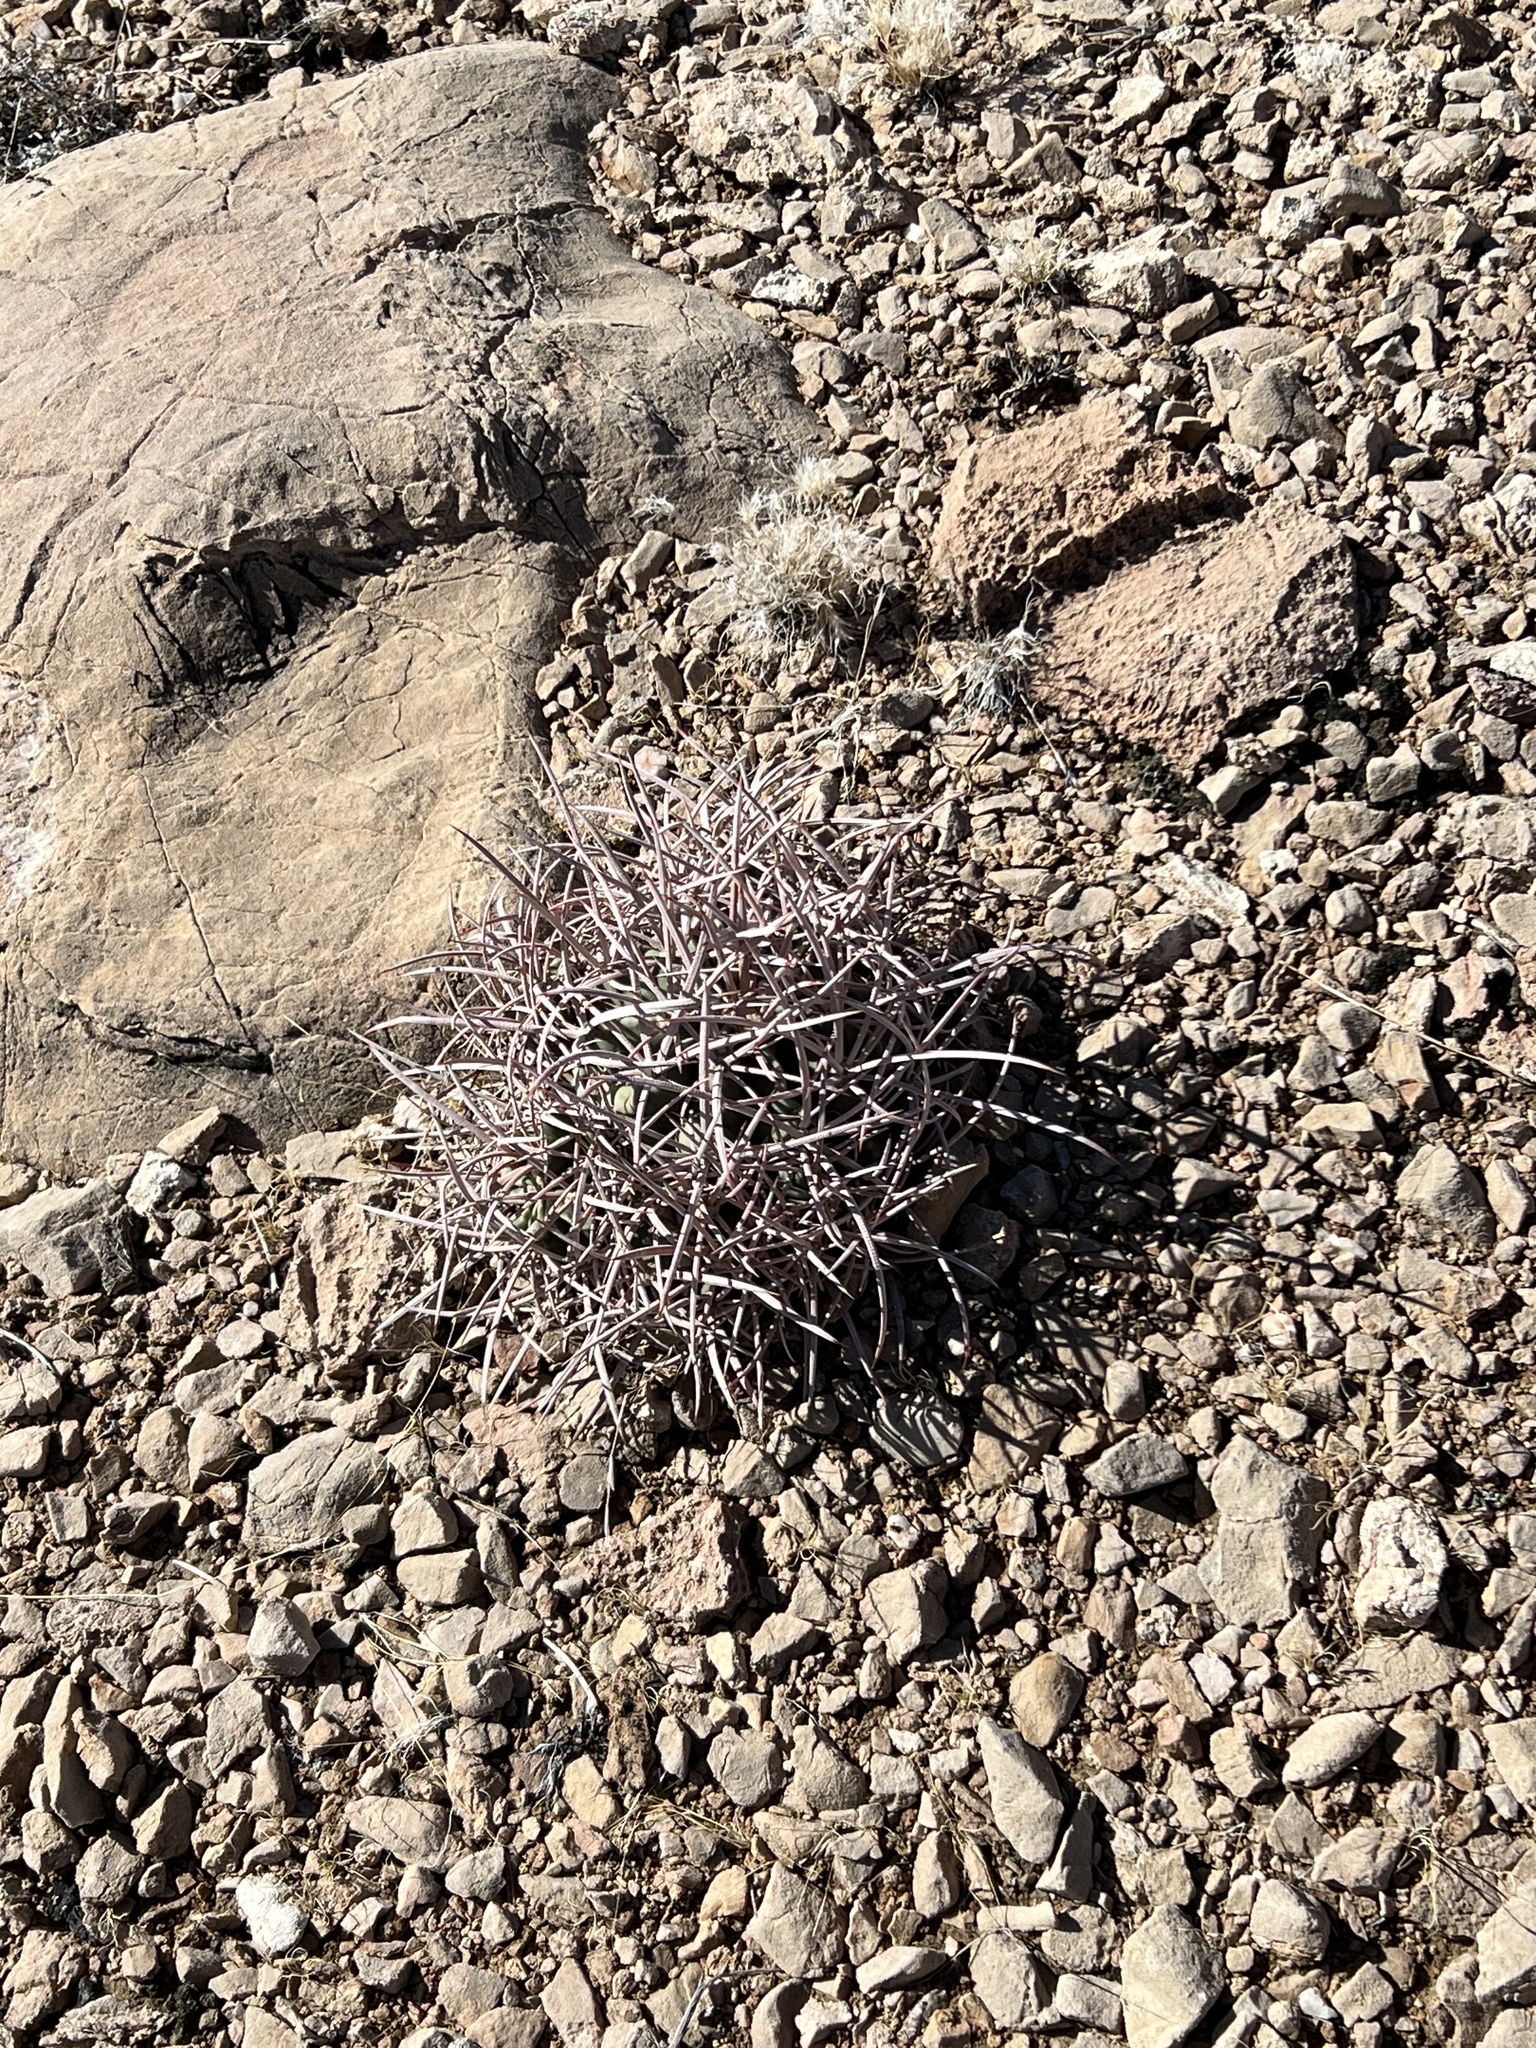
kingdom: Plantae
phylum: Tracheophyta
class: Magnoliopsida
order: Caryophyllales
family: Cactaceae
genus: Echinocactus
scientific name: Echinocactus polycephalus
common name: Cottontop cactus
